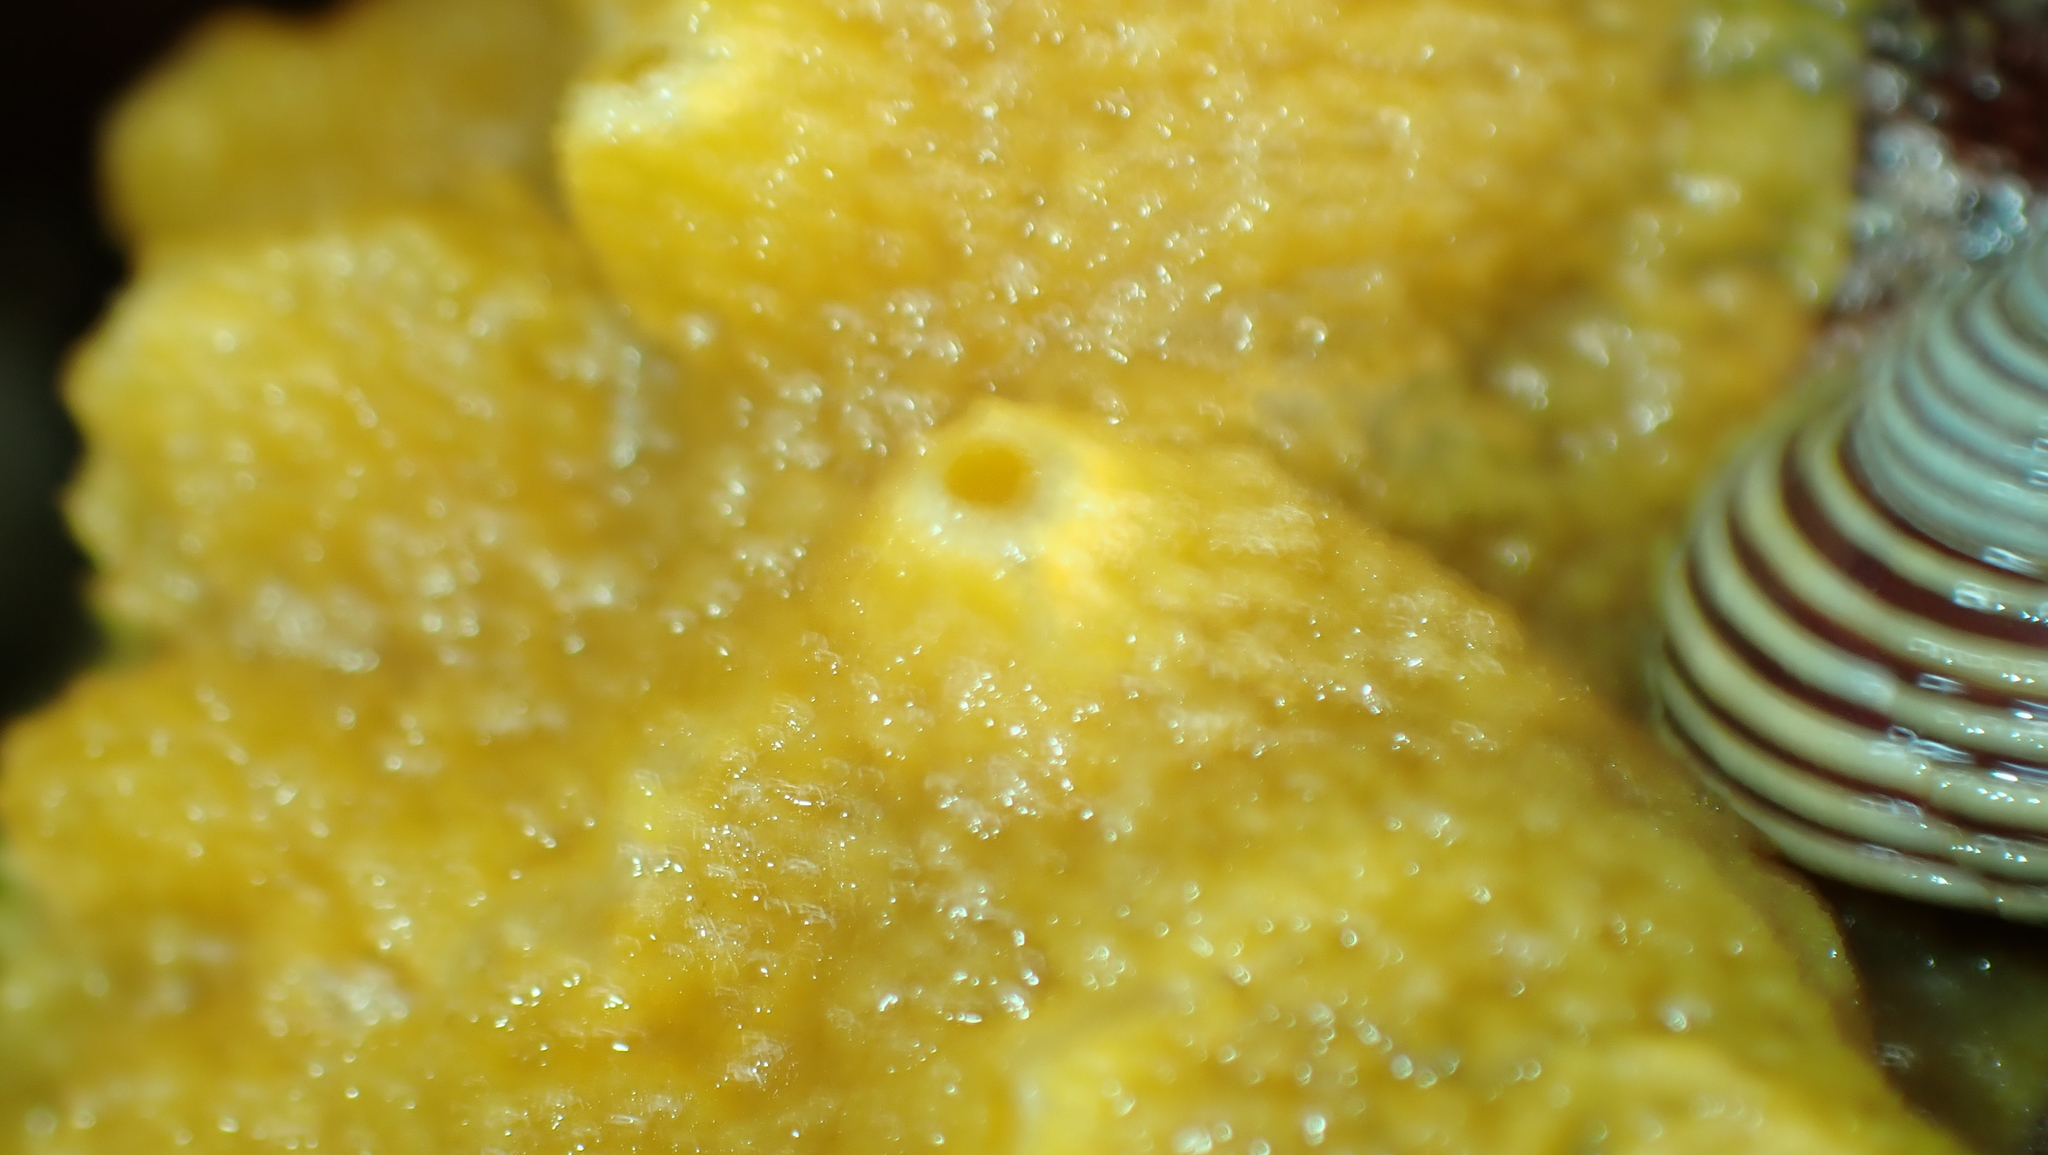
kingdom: Animalia
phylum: Porifera
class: Demospongiae
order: Suberitida
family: Halichondriidae
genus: Halichondria
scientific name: Halichondria panicea
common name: Breadcrumb sponge
